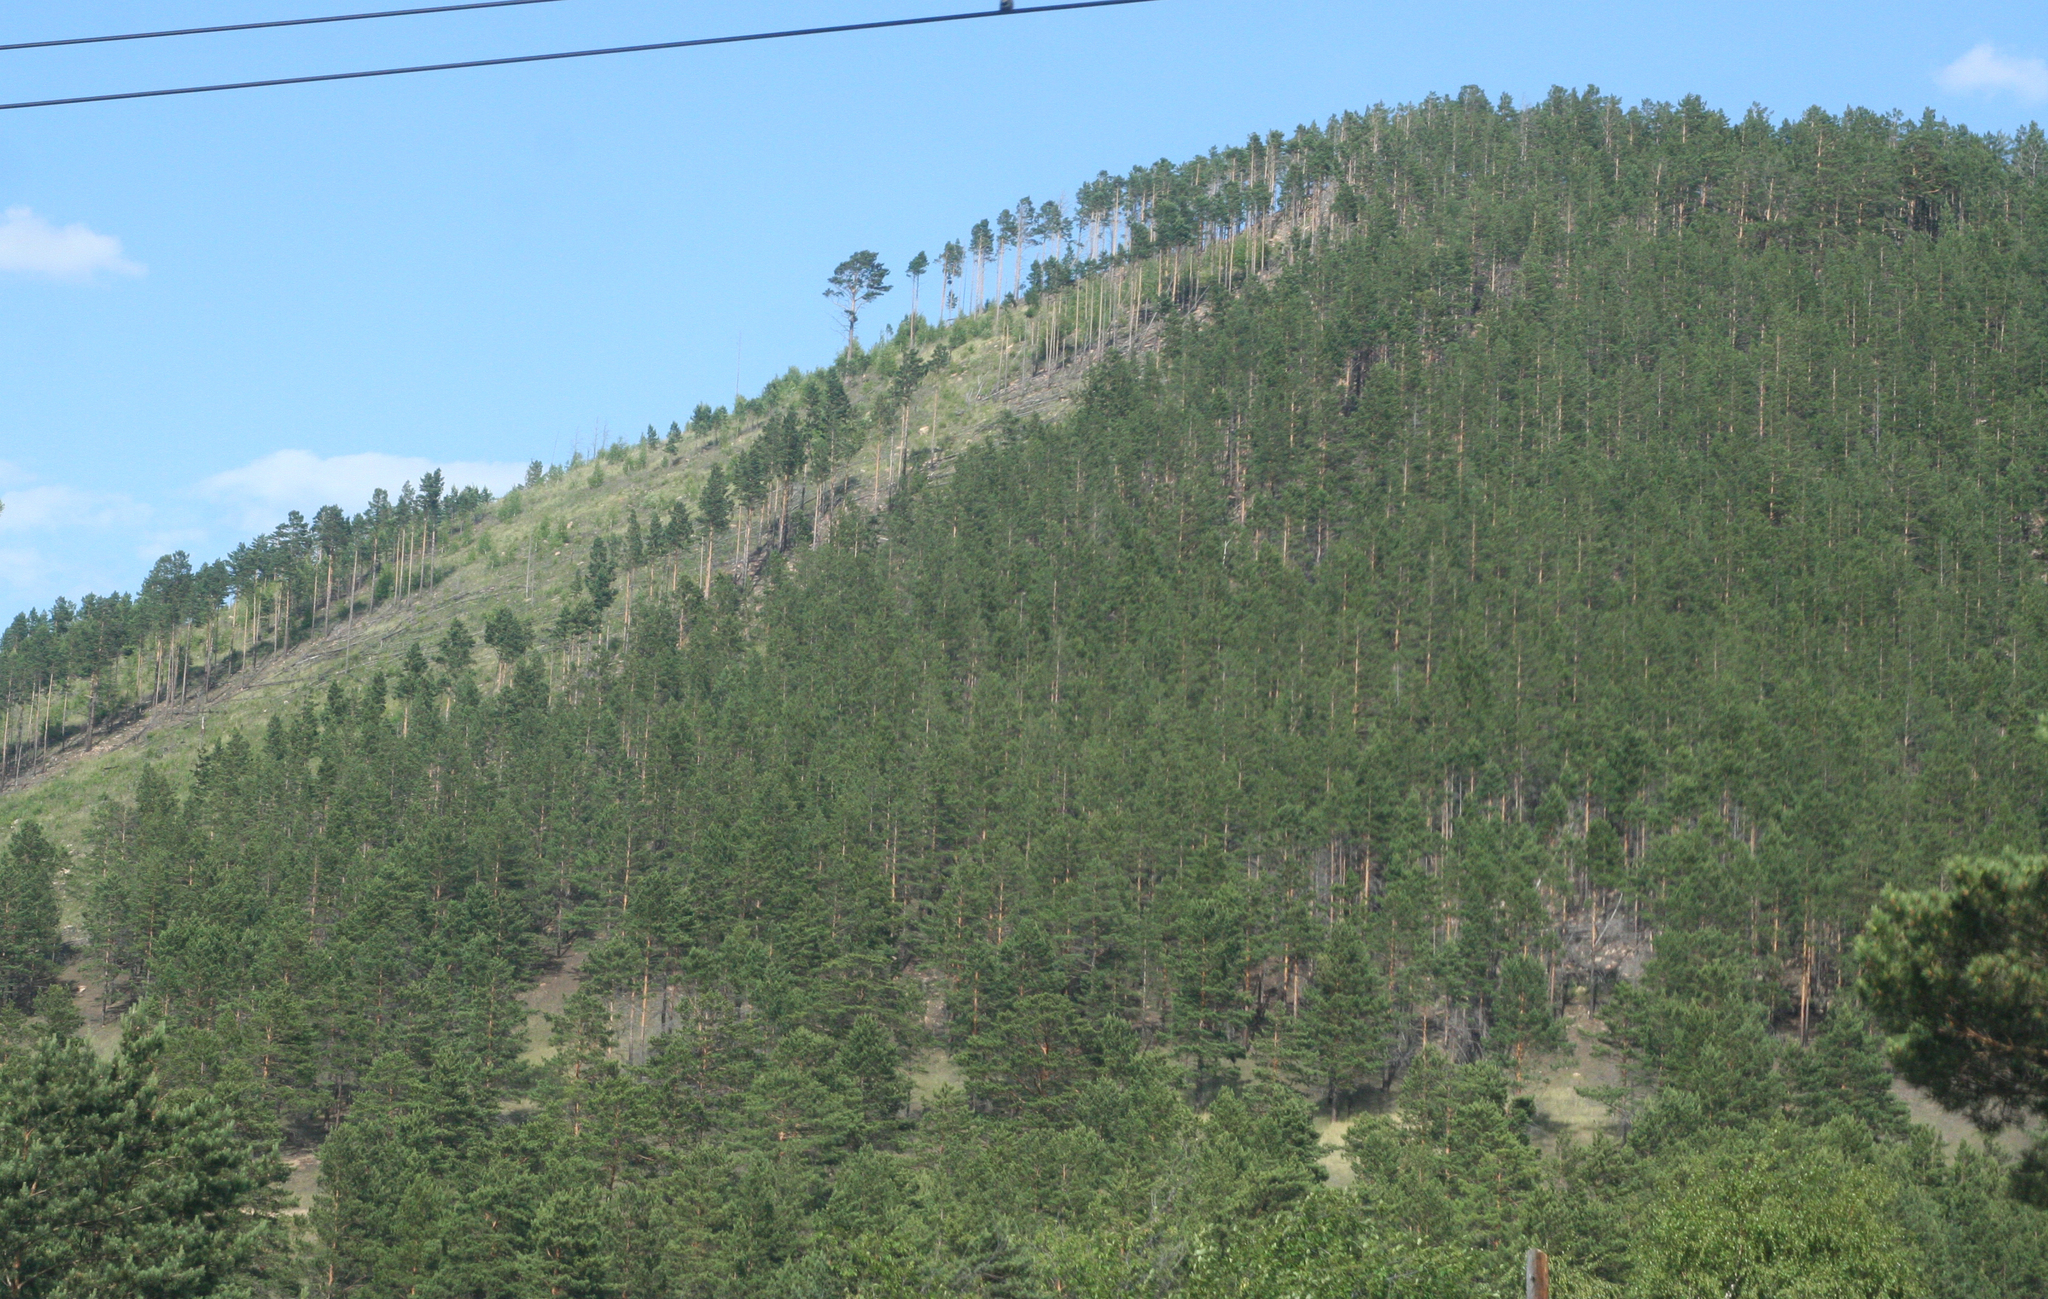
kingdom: Plantae
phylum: Tracheophyta
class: Pinopsida
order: Pinales
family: Pinaceae
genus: Pinus
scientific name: Pinus sylvestris
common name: Scots pine
